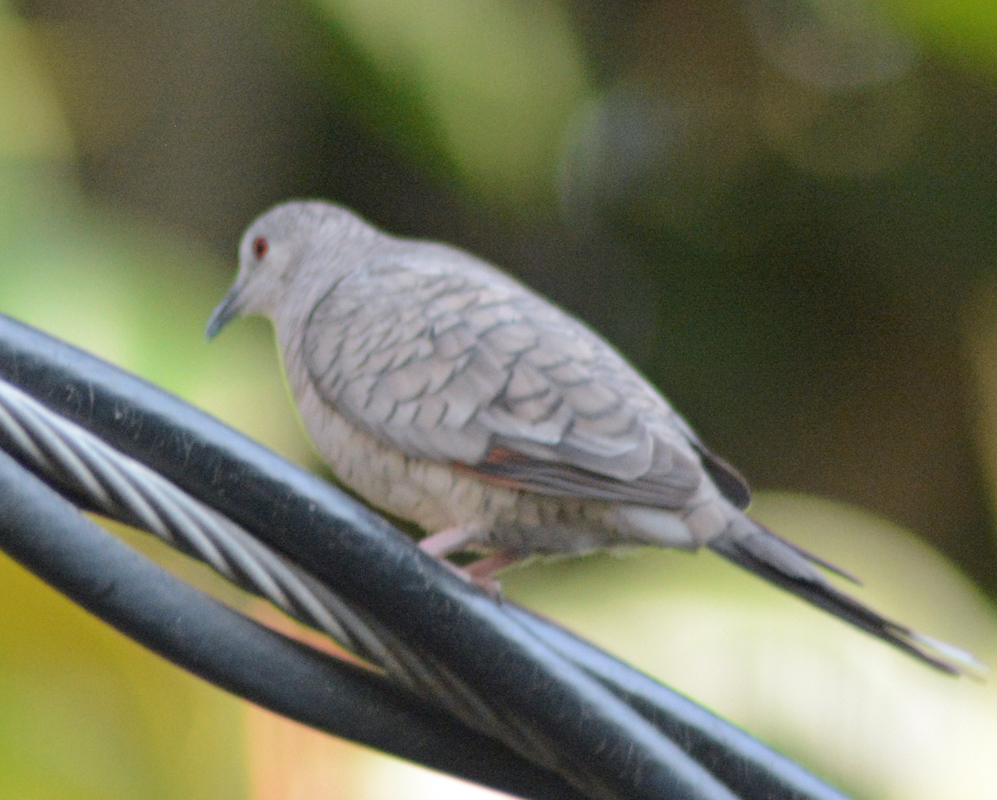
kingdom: Animalia
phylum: Chordata
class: Aves
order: Columbiformes
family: Columbidae
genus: Columbina
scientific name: Columbina inca
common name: Inca dove
